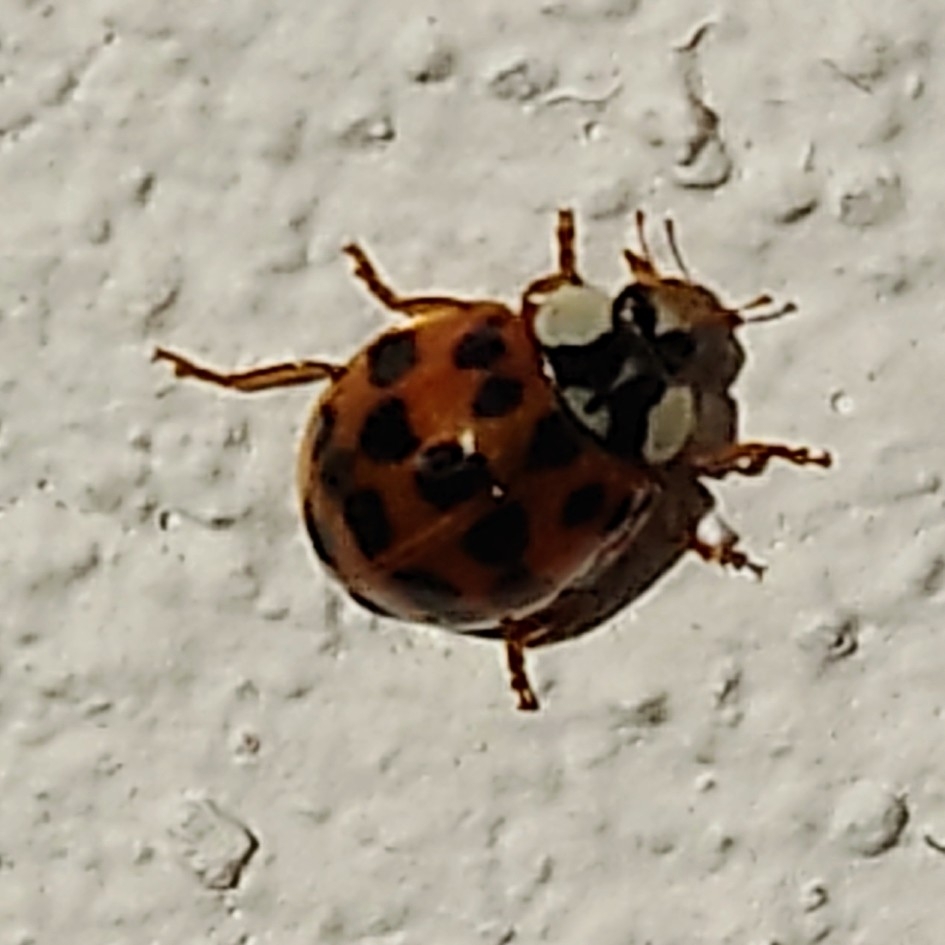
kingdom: Animalia
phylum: Arthropoda
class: Insecta
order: Coleoptera
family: Coccinellidae
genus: Harmonia
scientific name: Harmonia axyridis
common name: Harlequin ladybird
